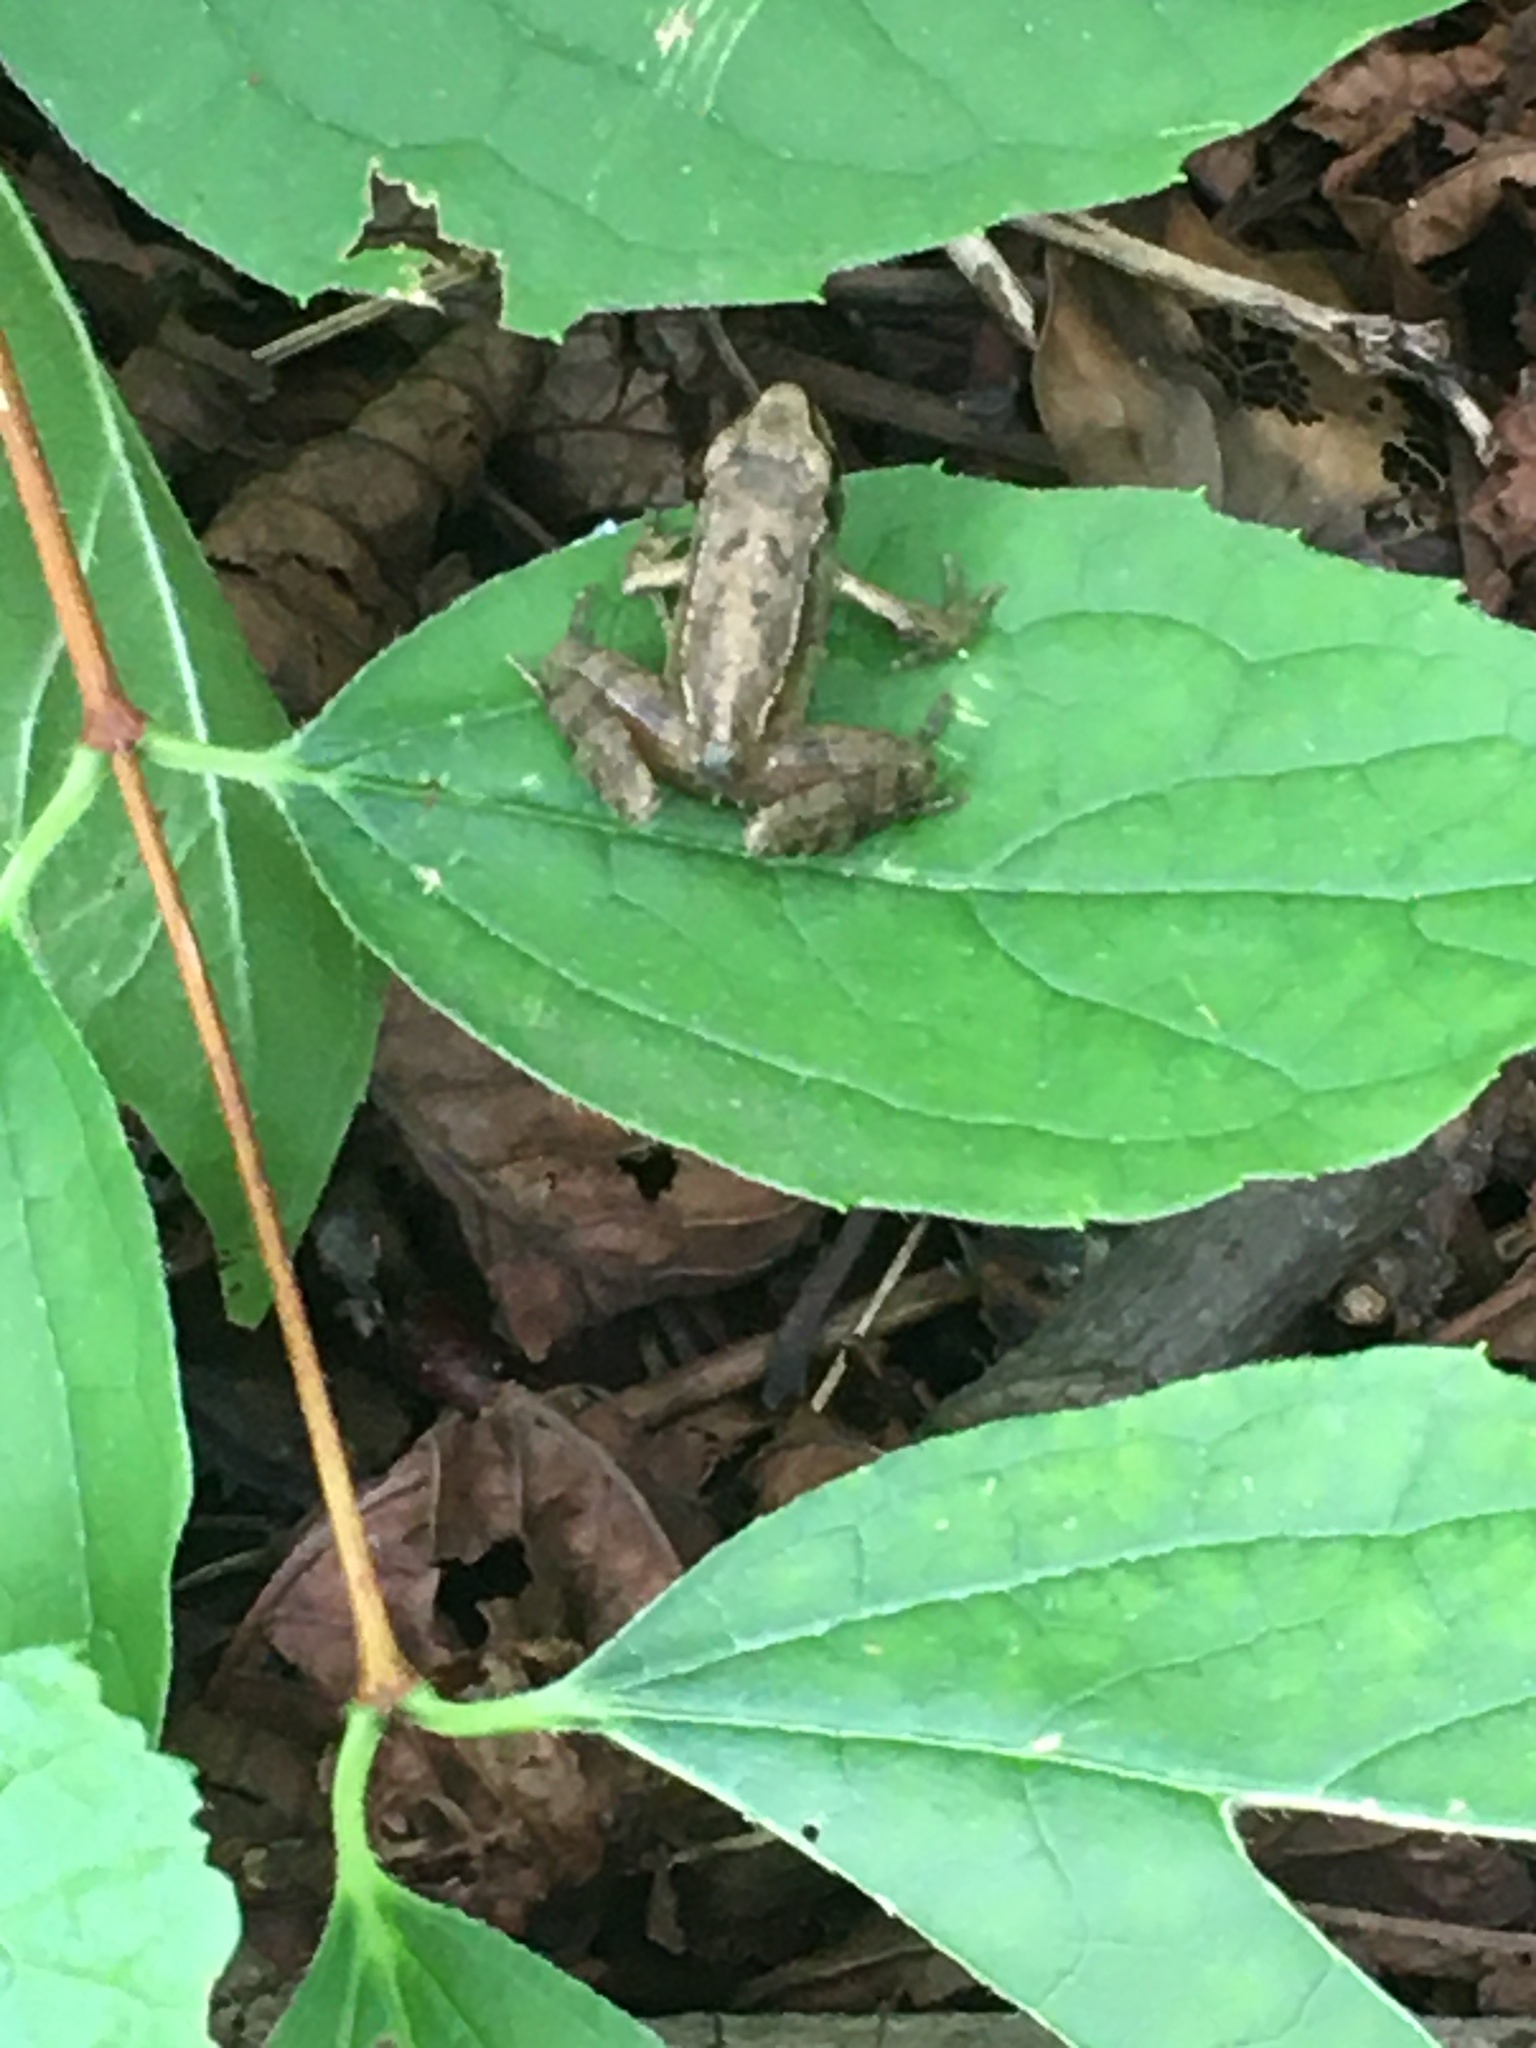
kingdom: Animalia
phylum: Chordata
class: Amphibia
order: Anura
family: Ranidae
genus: Rana
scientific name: Rana temporaria
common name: Common frog
